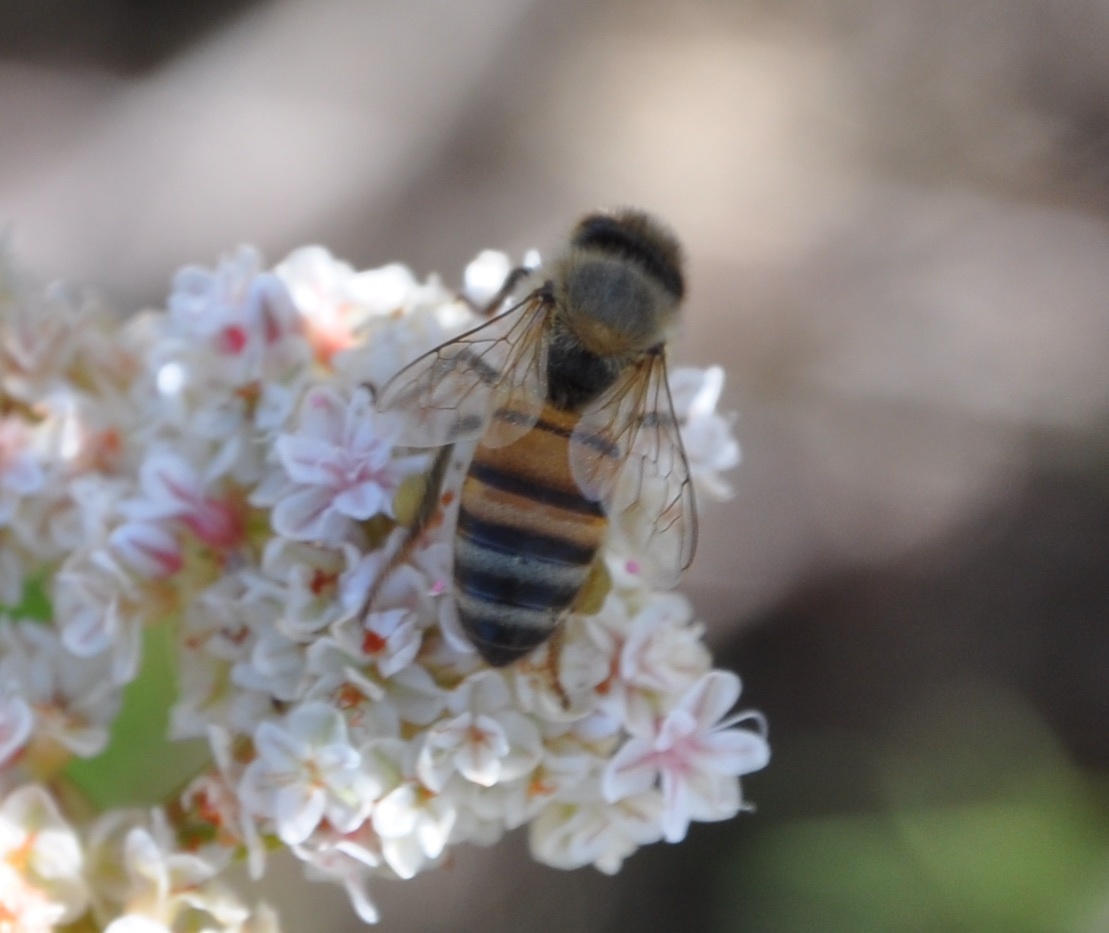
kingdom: Animalia
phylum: Arthropoda
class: Insecta
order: Hymenoptera
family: Apidae
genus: Apis
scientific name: Apis mellifera
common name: Honey bee
